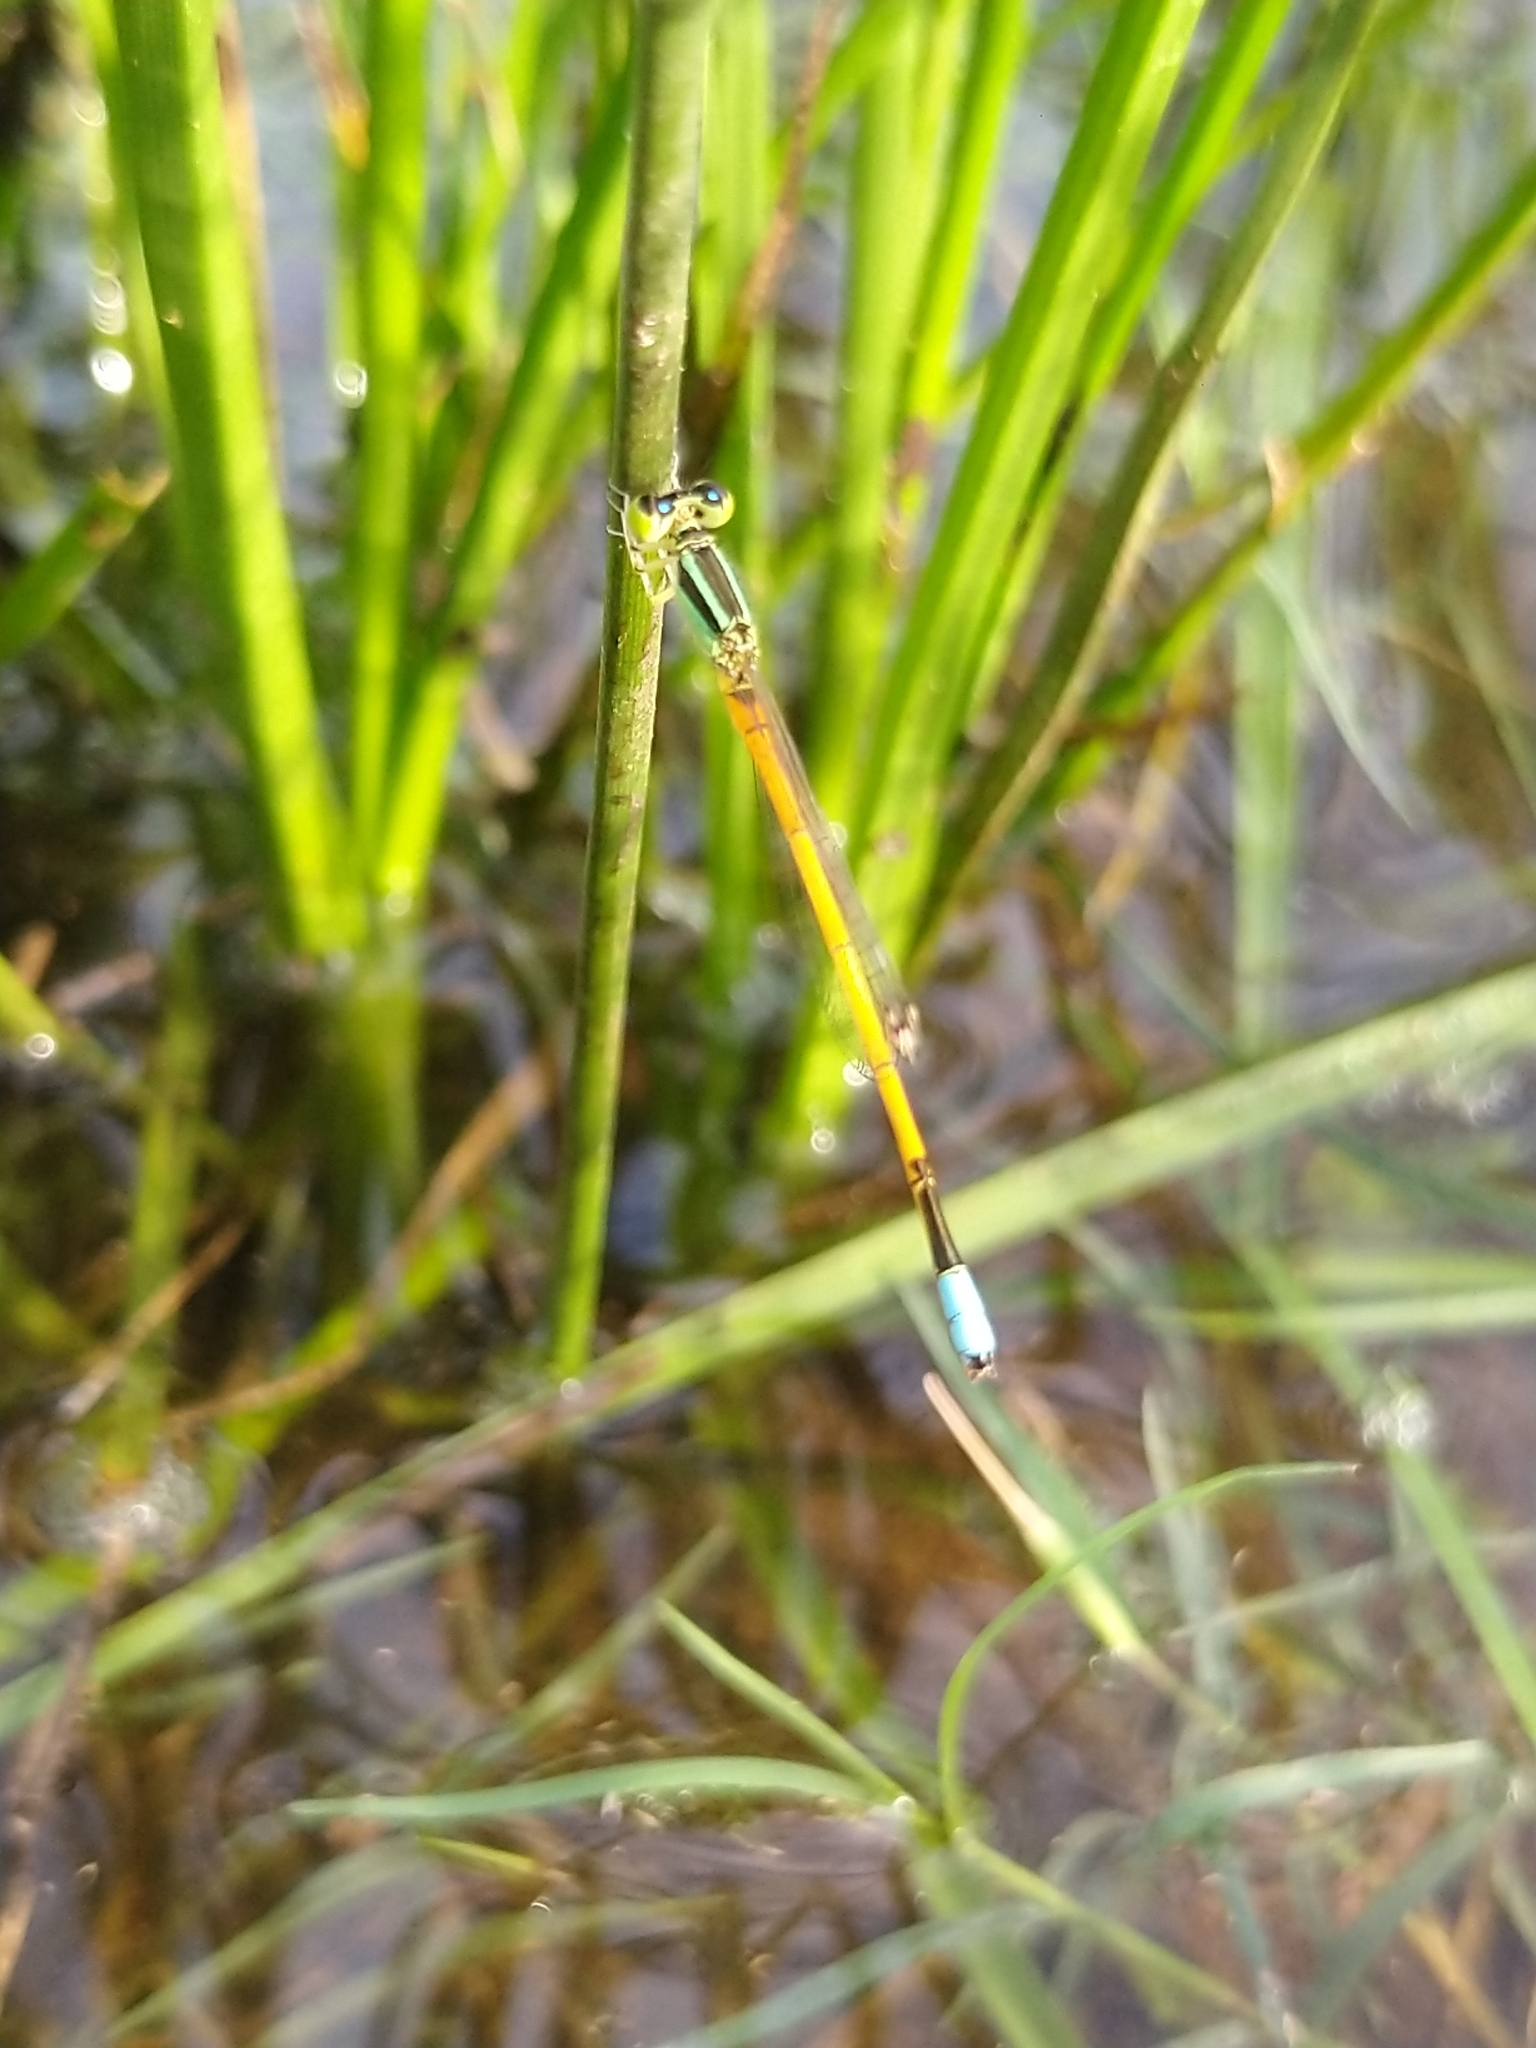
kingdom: Animalia
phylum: Arthropoda
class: Insecta
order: Odonata
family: Coenagrionidae
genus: Ischnura
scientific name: Ischnura rubilio
